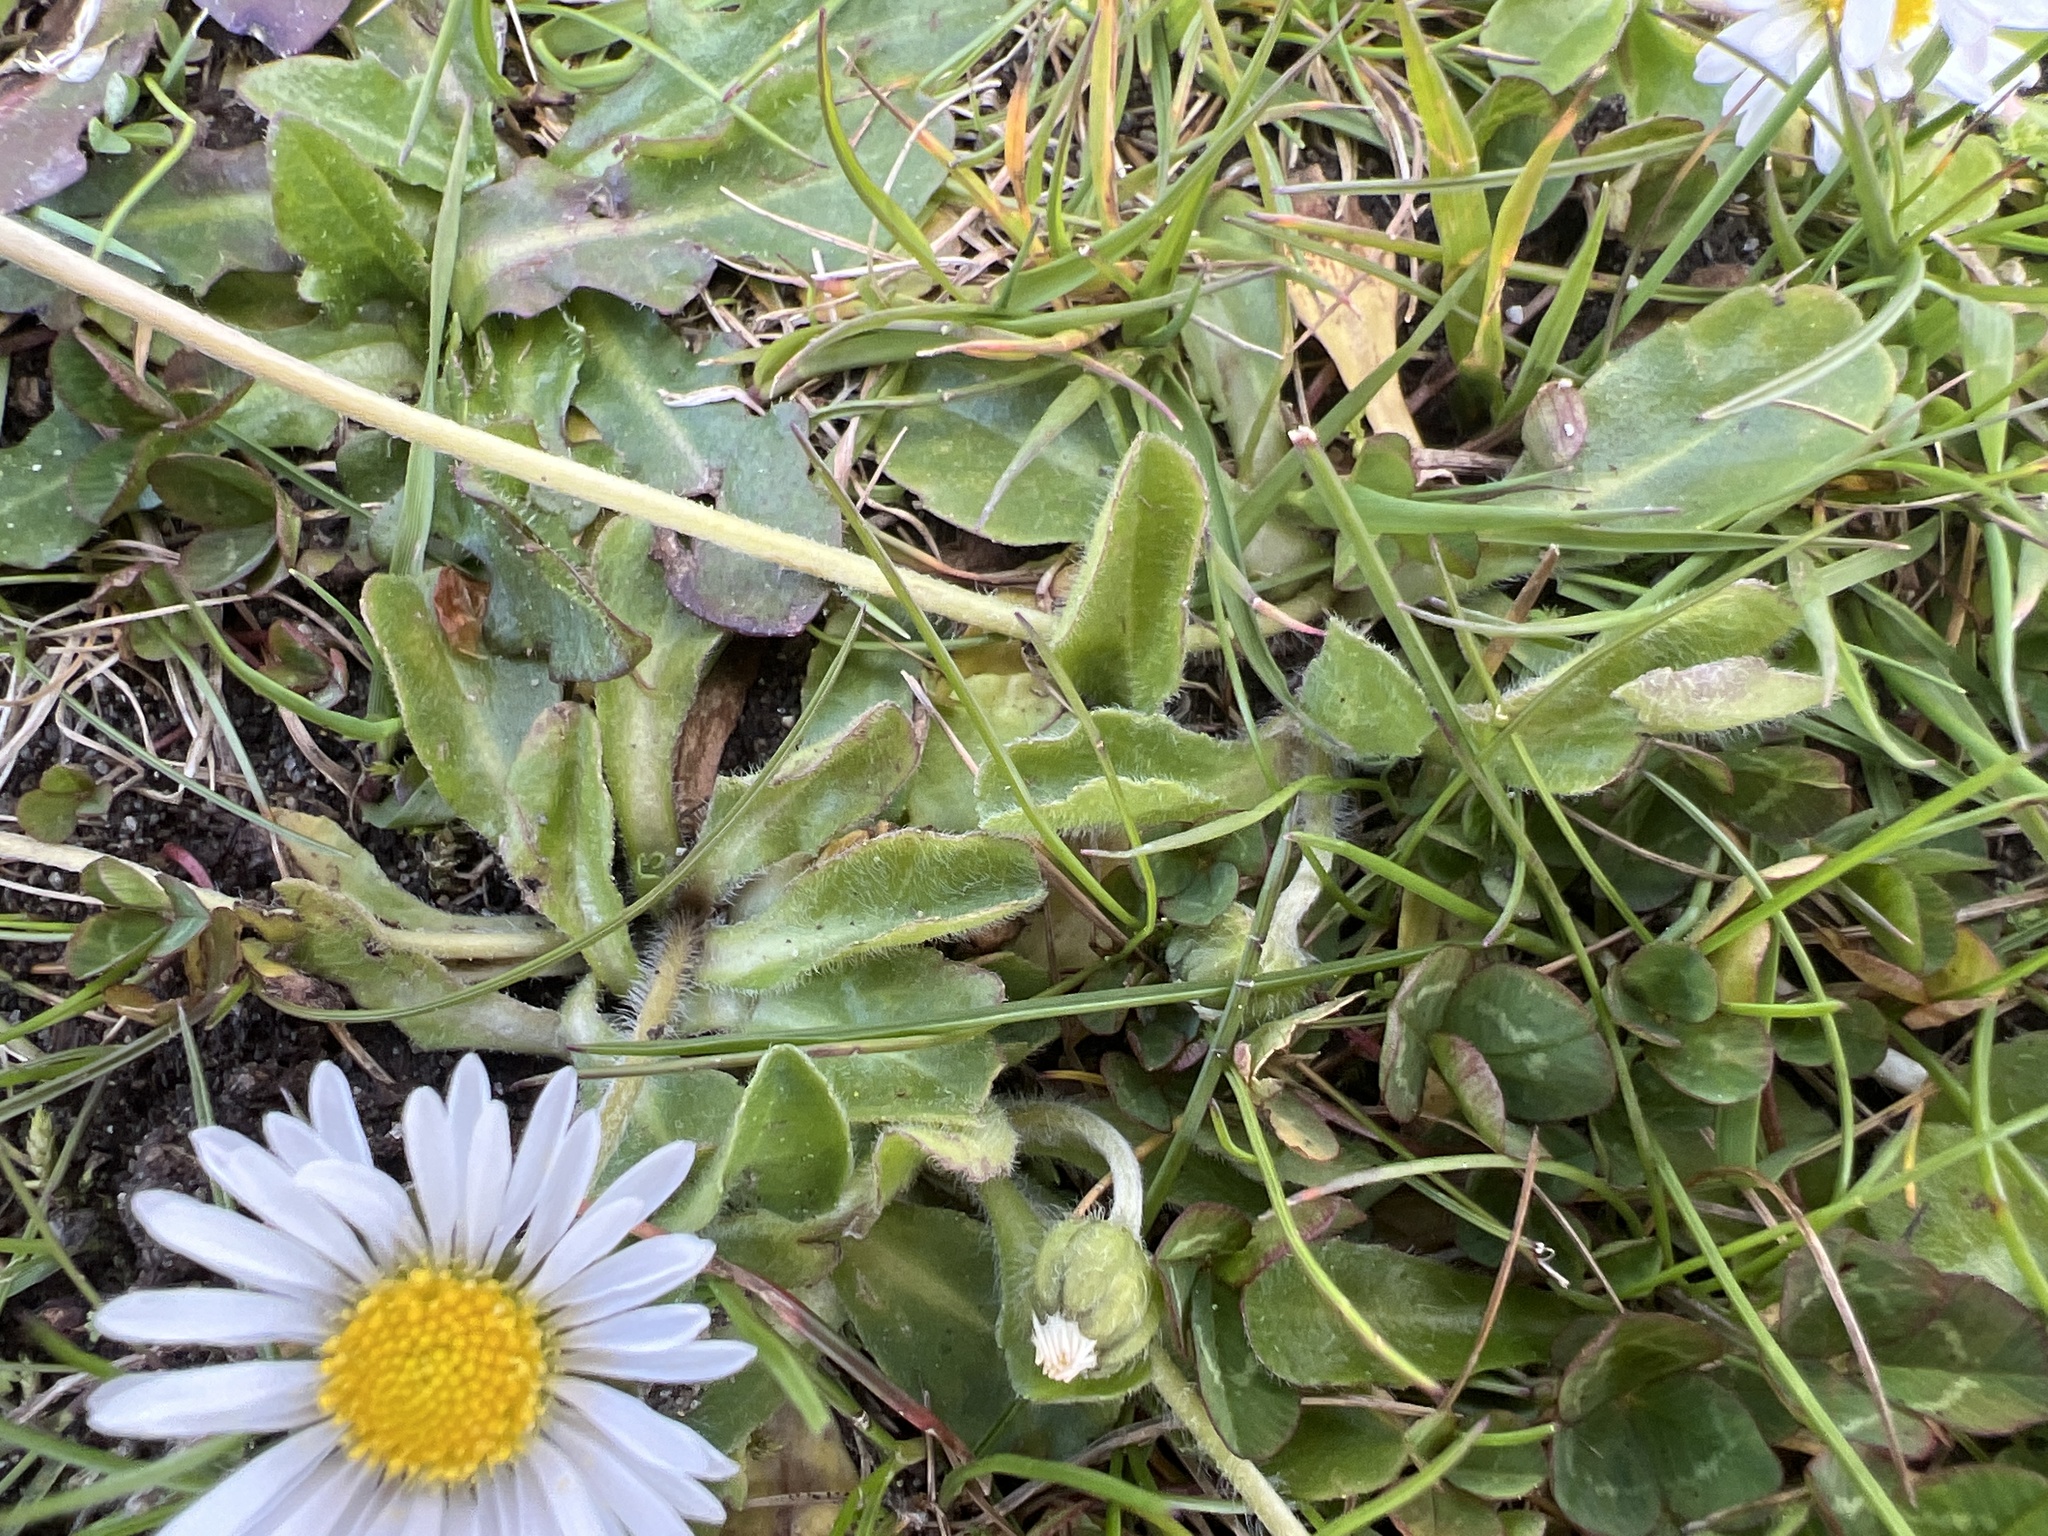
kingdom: Plantae
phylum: Tracheophyta
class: Magnoliopsida
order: Asterales
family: Asteraceae
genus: Bellis
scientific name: Bellis perennis
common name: Lawndaisy
